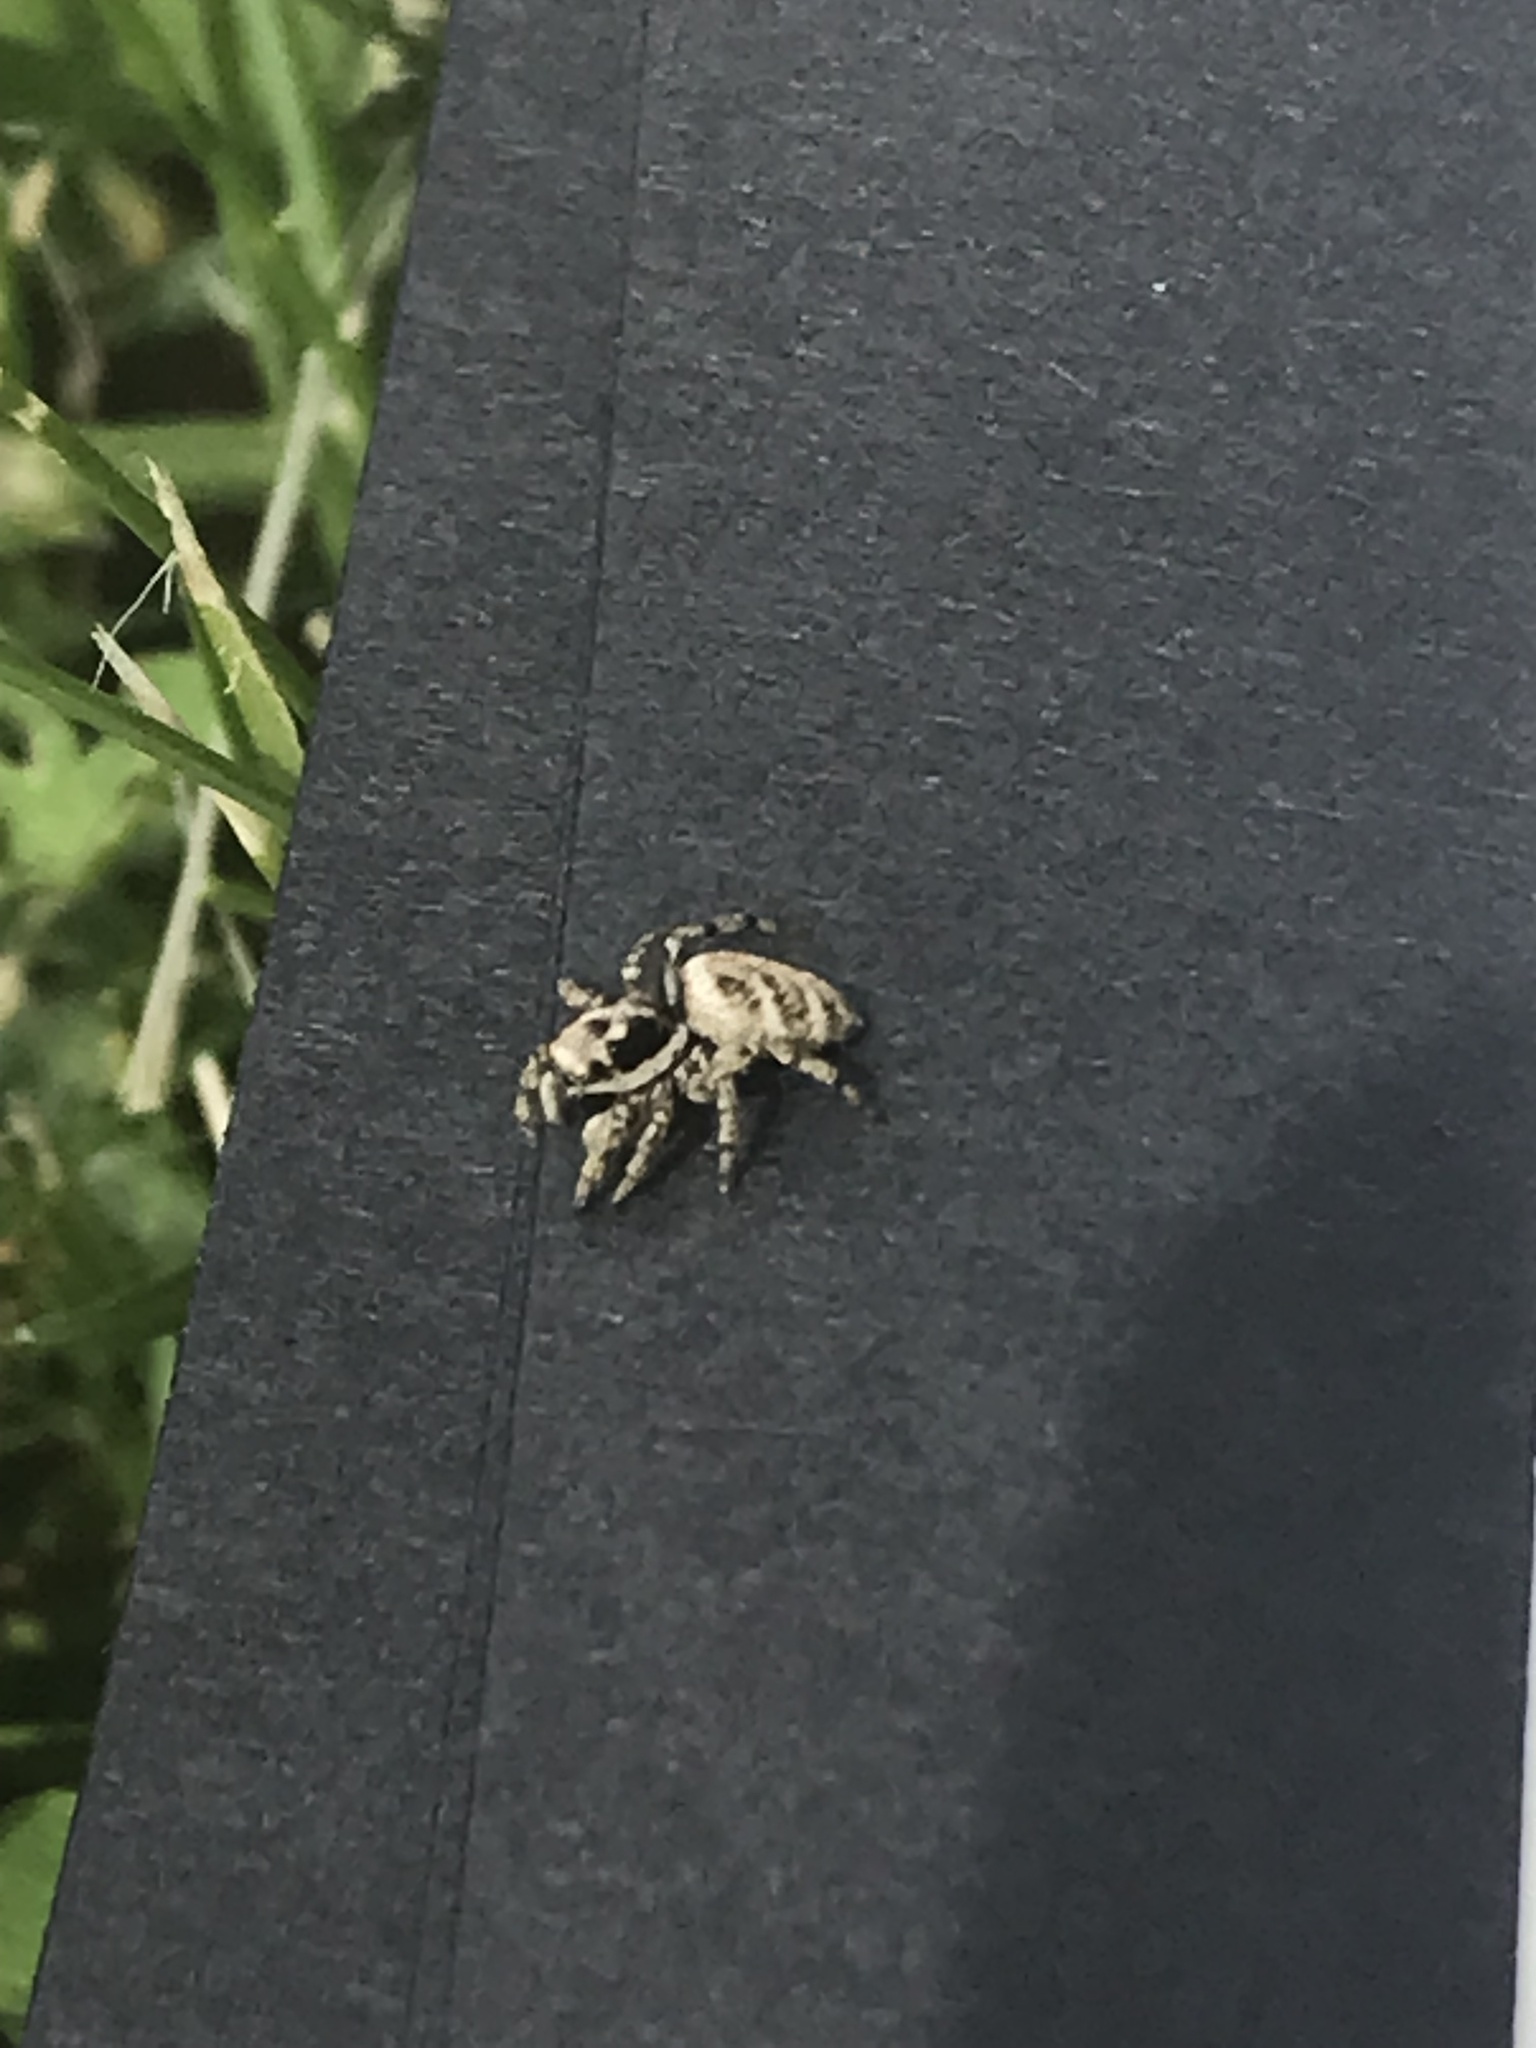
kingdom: Animalia
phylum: Arthropoda
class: Arachnida
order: Araneae
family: Salticidae
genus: Salticus
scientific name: Salticus scenicus
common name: Zebra jumper
